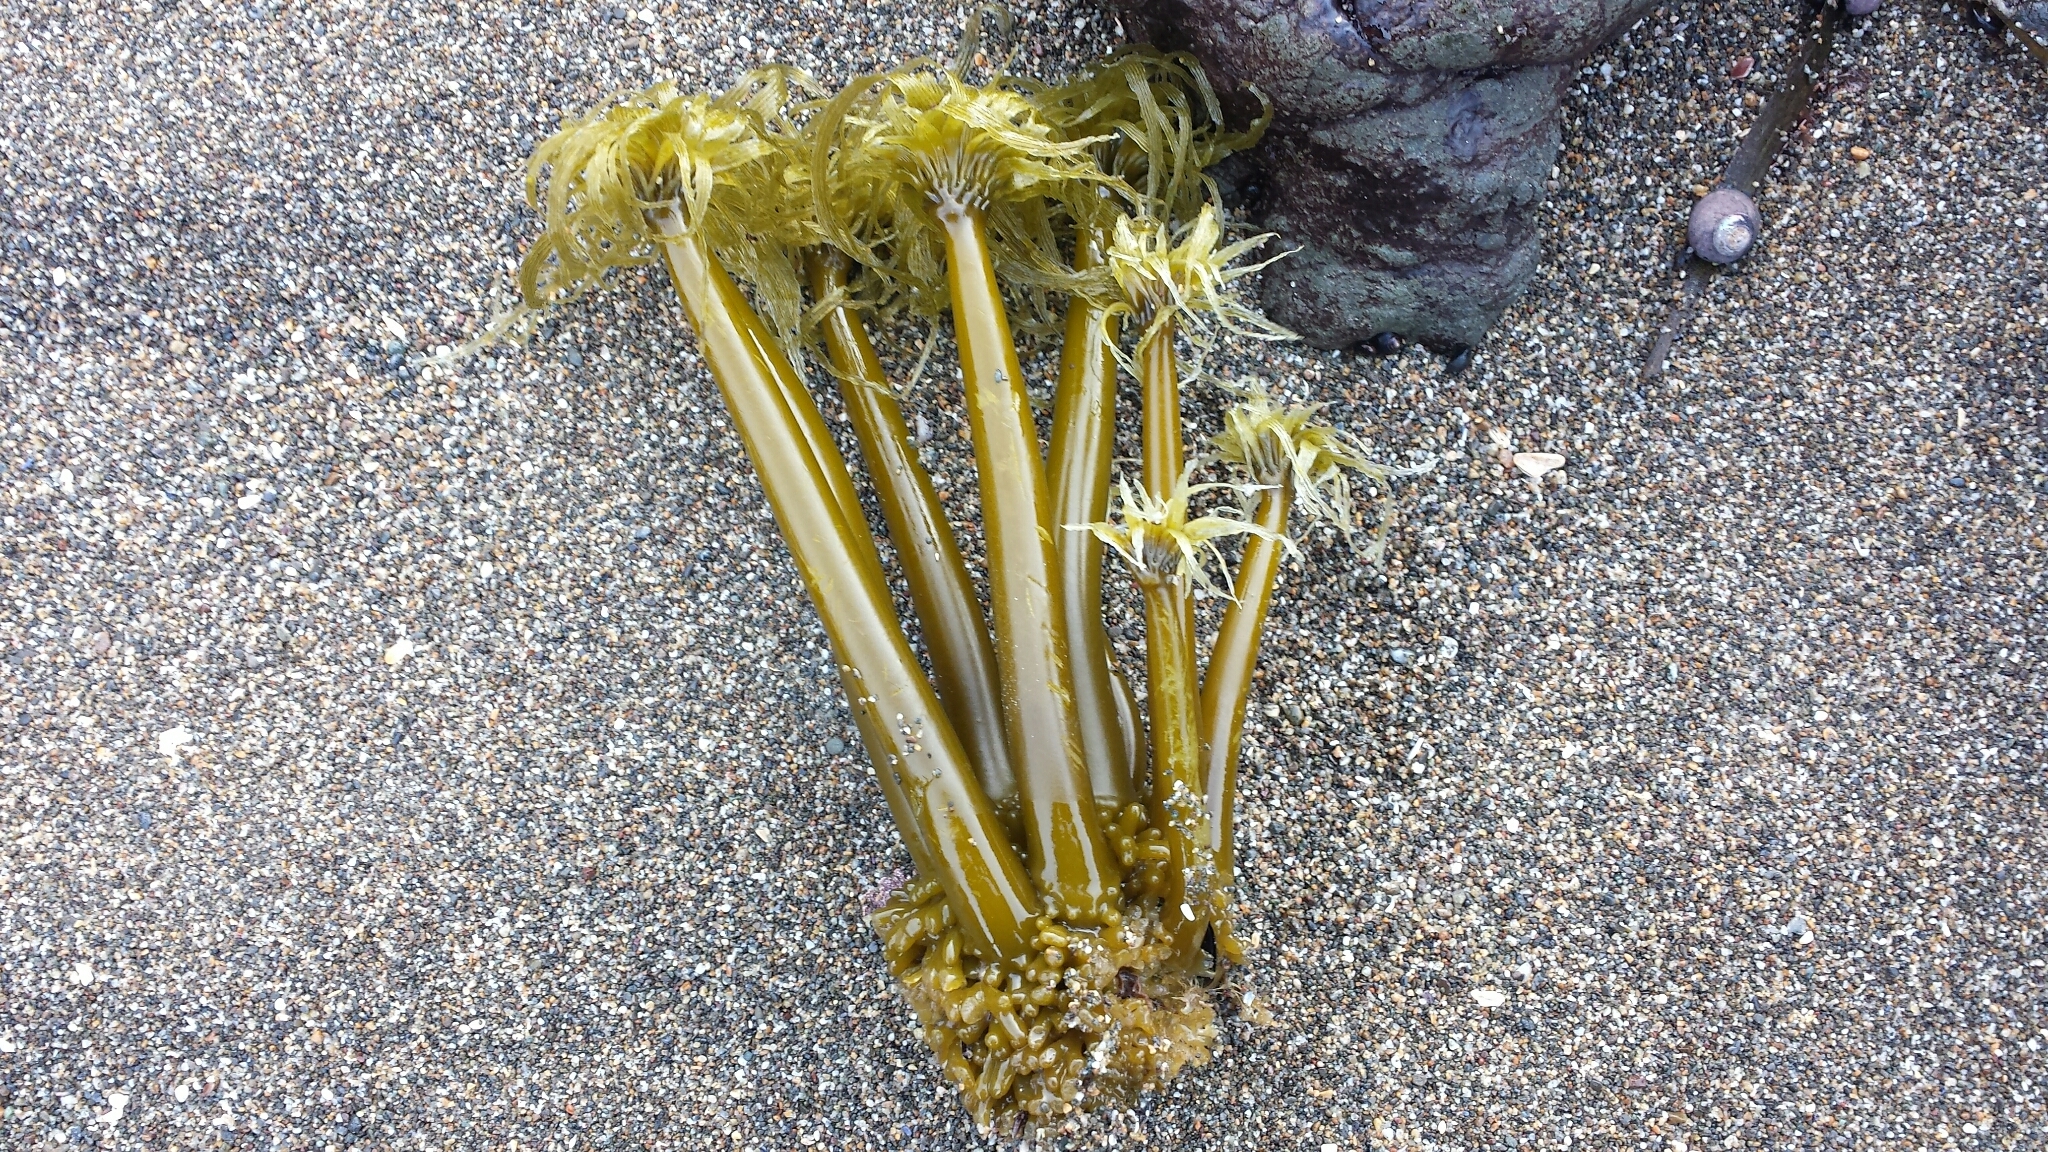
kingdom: Chromista
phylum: Ochrophyta
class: Phaeophyceae
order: Laminariales
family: Laminariaceae
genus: Postelsia
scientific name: Postelsia palmiformis
